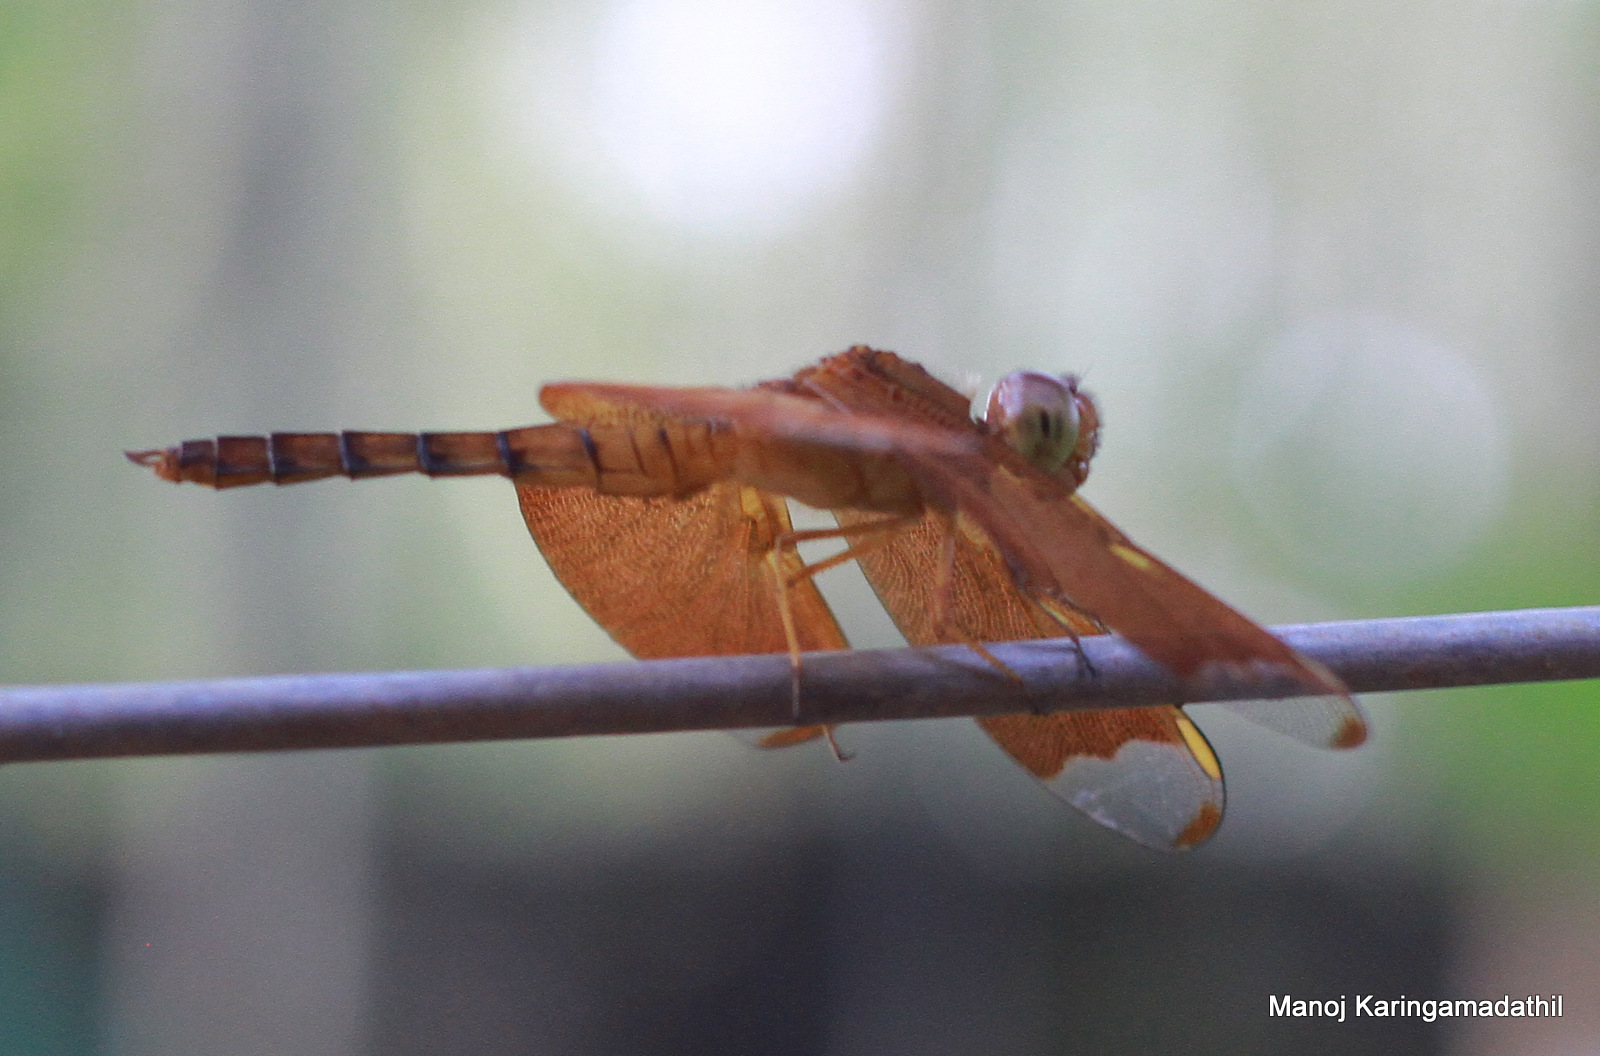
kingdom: Animalia
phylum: Arthropoda
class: Insecta
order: Odonata
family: Libellulidae
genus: Neurothemis
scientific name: Neurothemis fulvia
